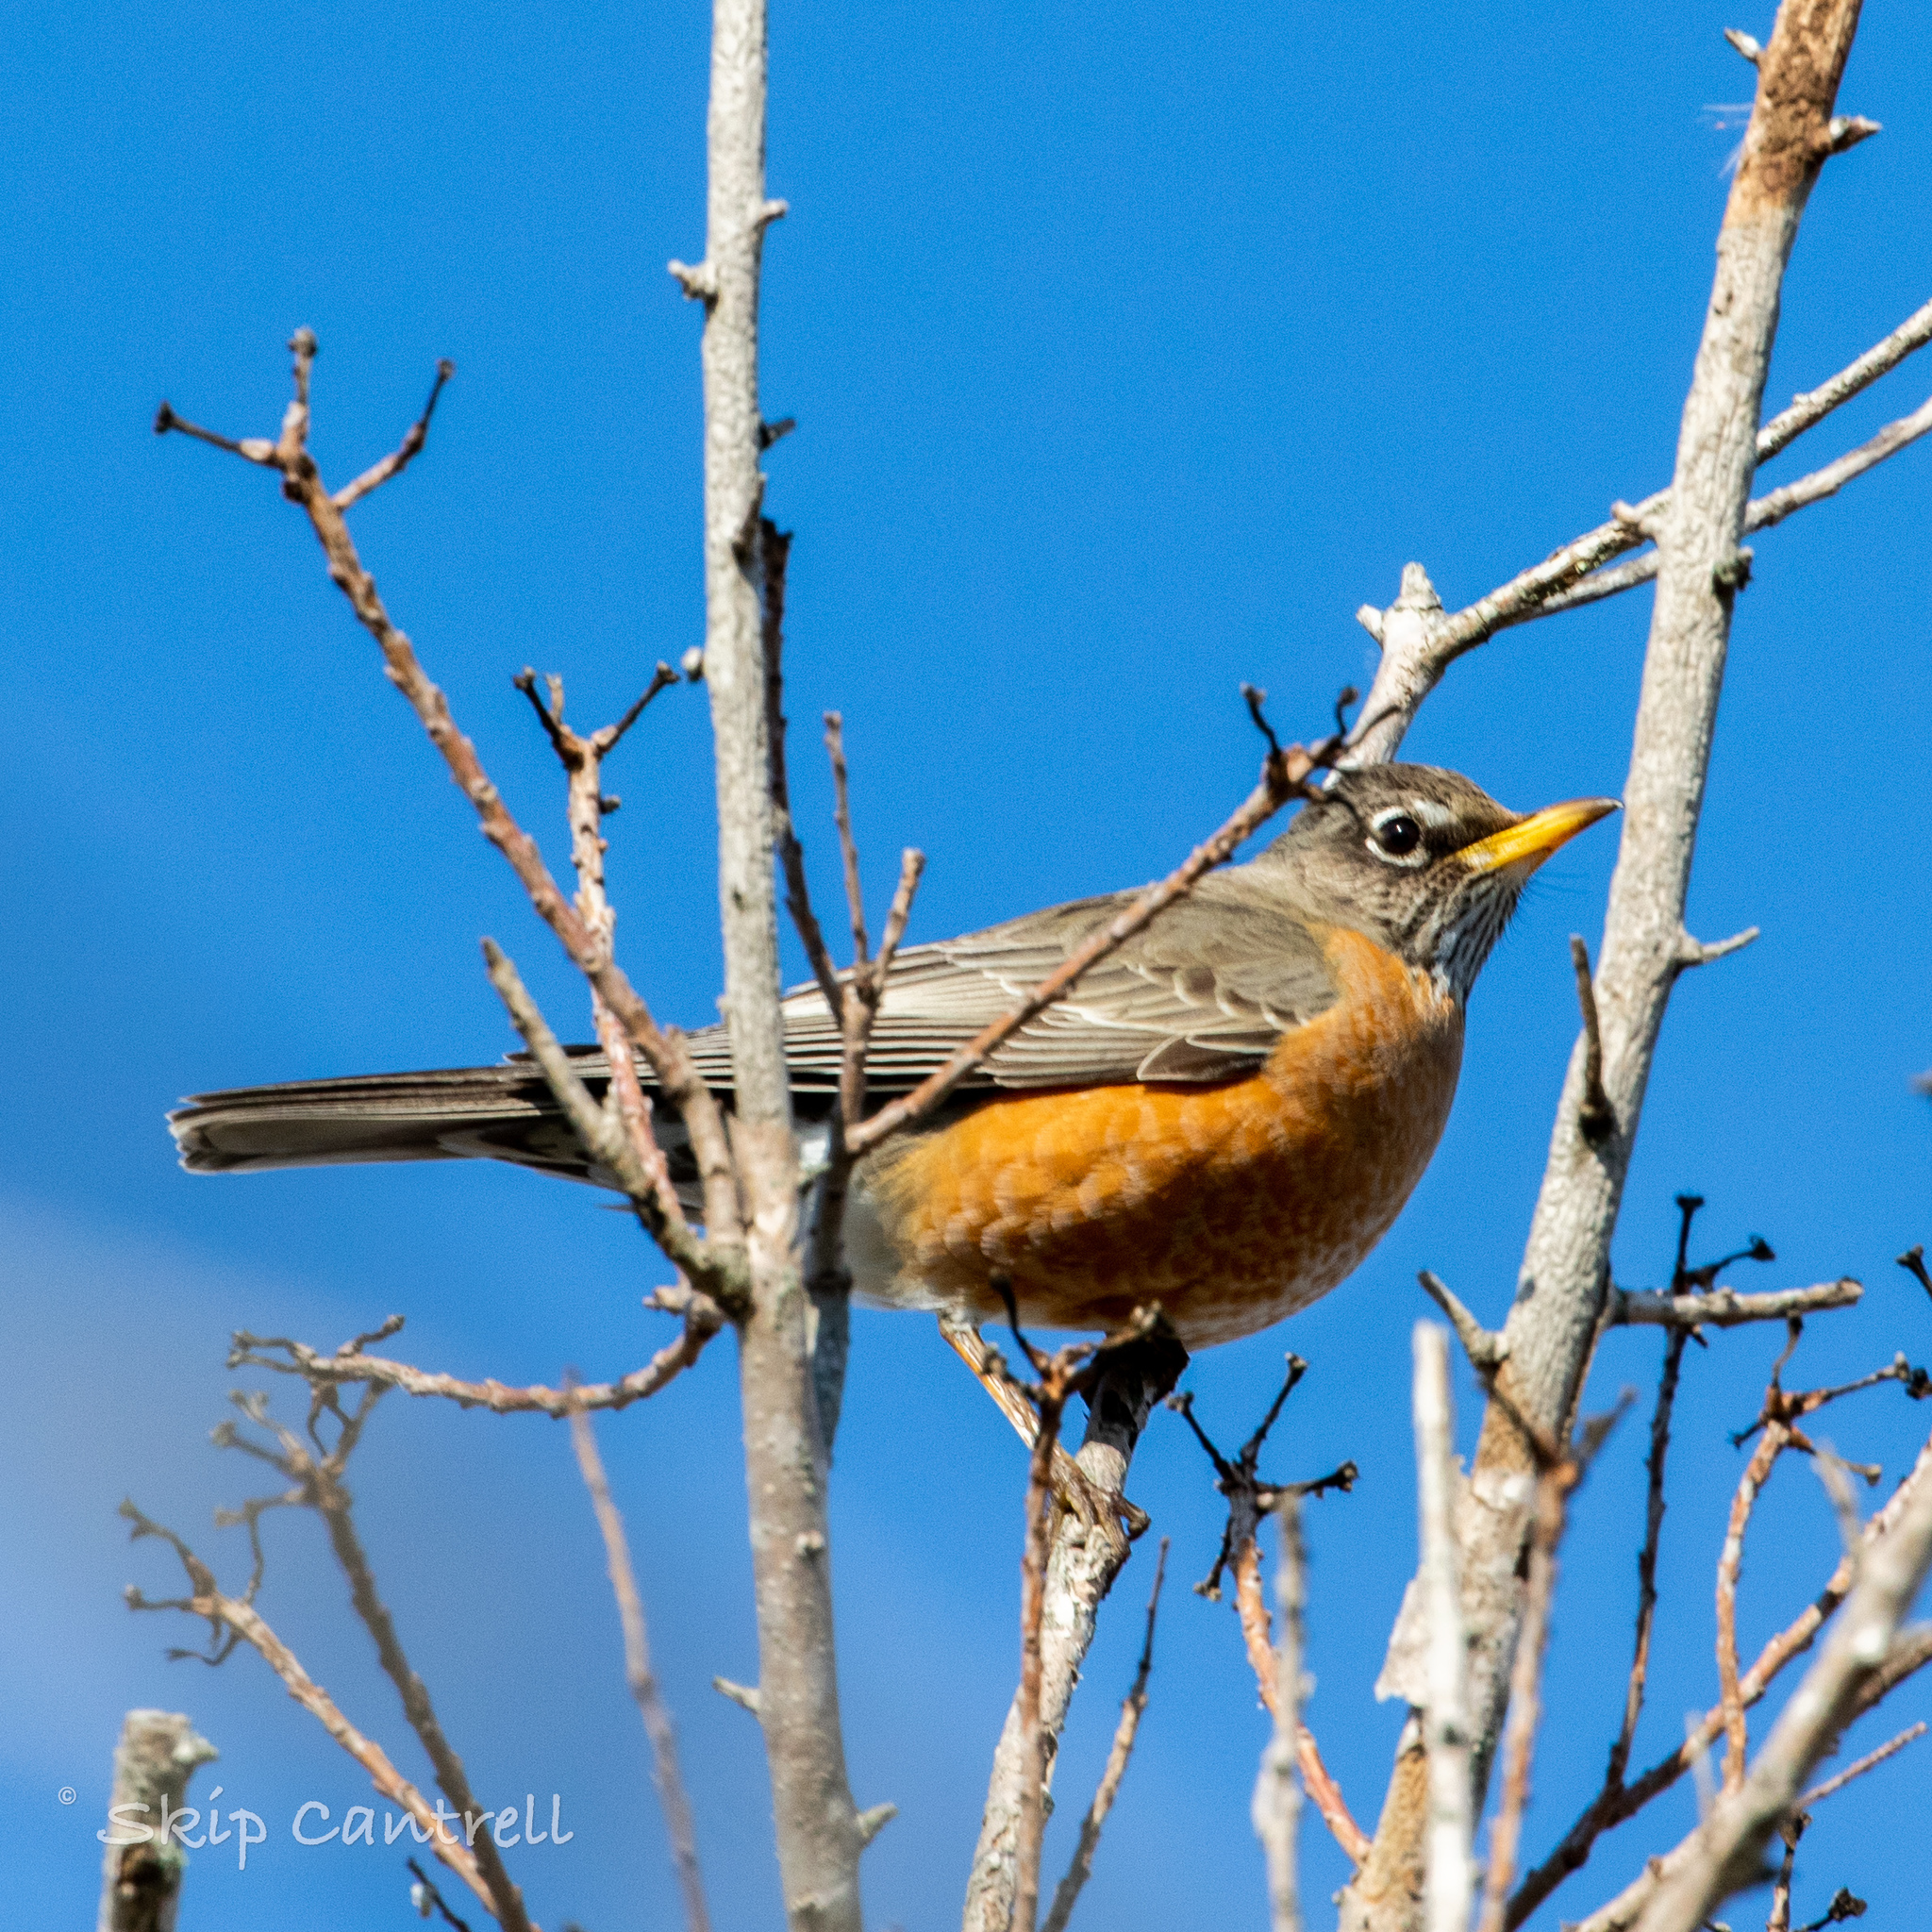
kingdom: Animalia
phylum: Chordata
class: Aves
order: Passeriformes
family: Turdidae
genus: Turdus
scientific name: Turdus migratorius
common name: American robin
